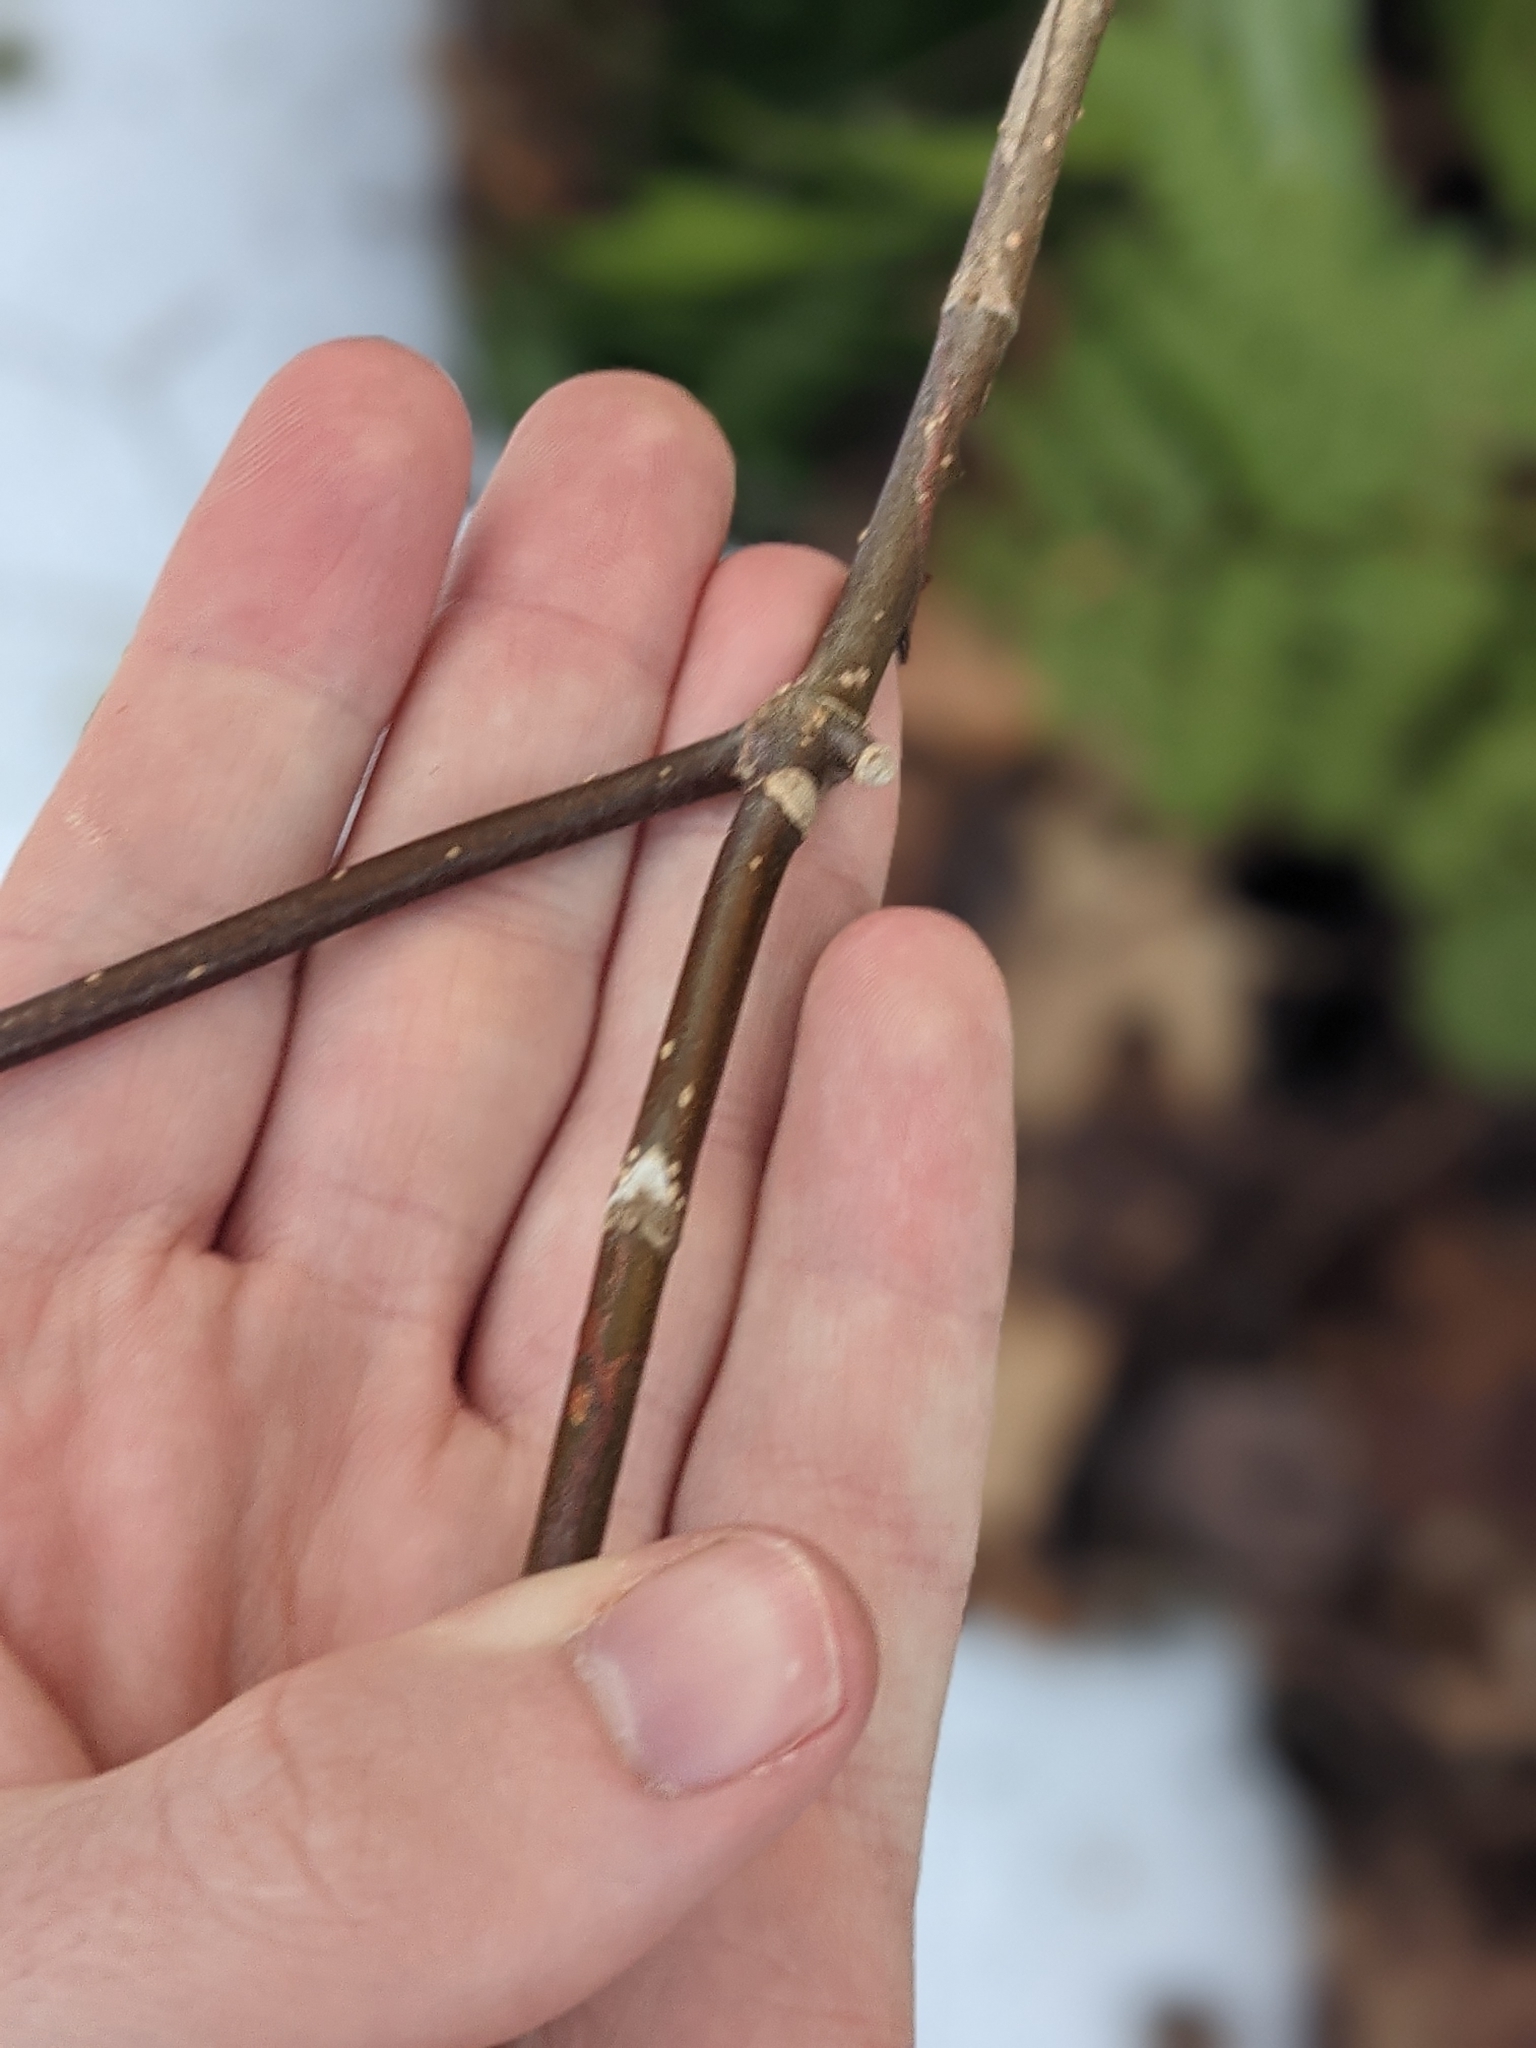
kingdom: Plantae
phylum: Tracheophyta
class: Magnoliopsida
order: Dipsacales
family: Viburnaceae
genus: Viburnum
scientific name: Viburnum lantanoides
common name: Hobblebush
